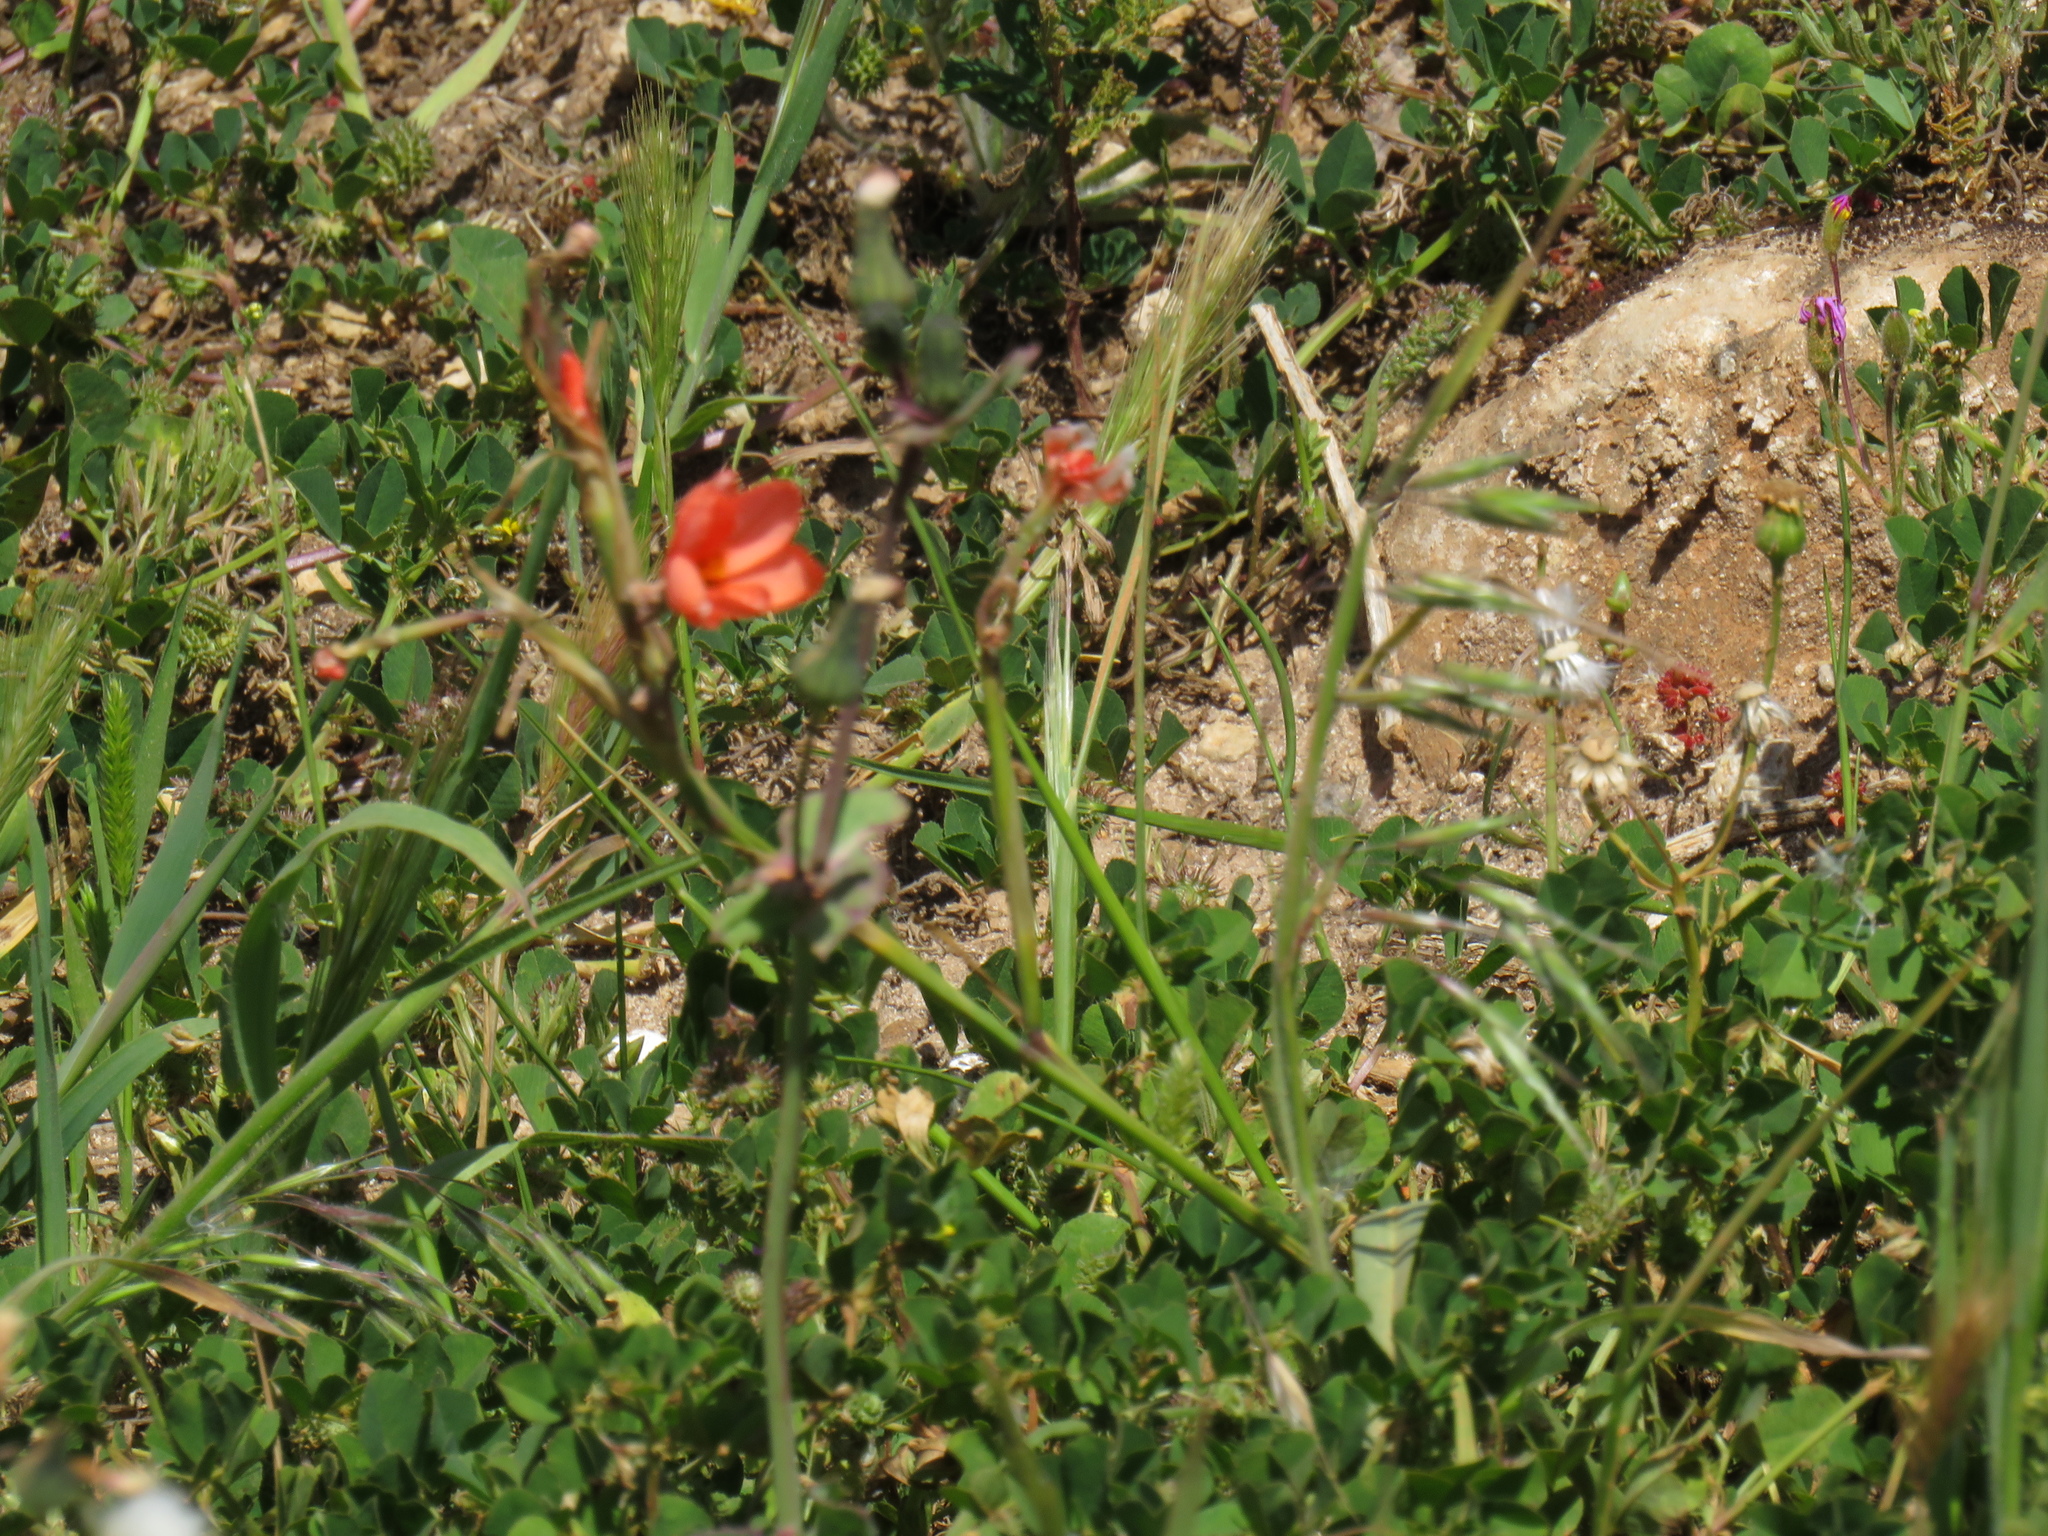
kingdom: Plantae
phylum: Tracheophyta
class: Liliopsida
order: Asparagales
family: Iridaceae
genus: Moraea
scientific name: Moraea miniata
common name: Two-leaf cape-tulip
